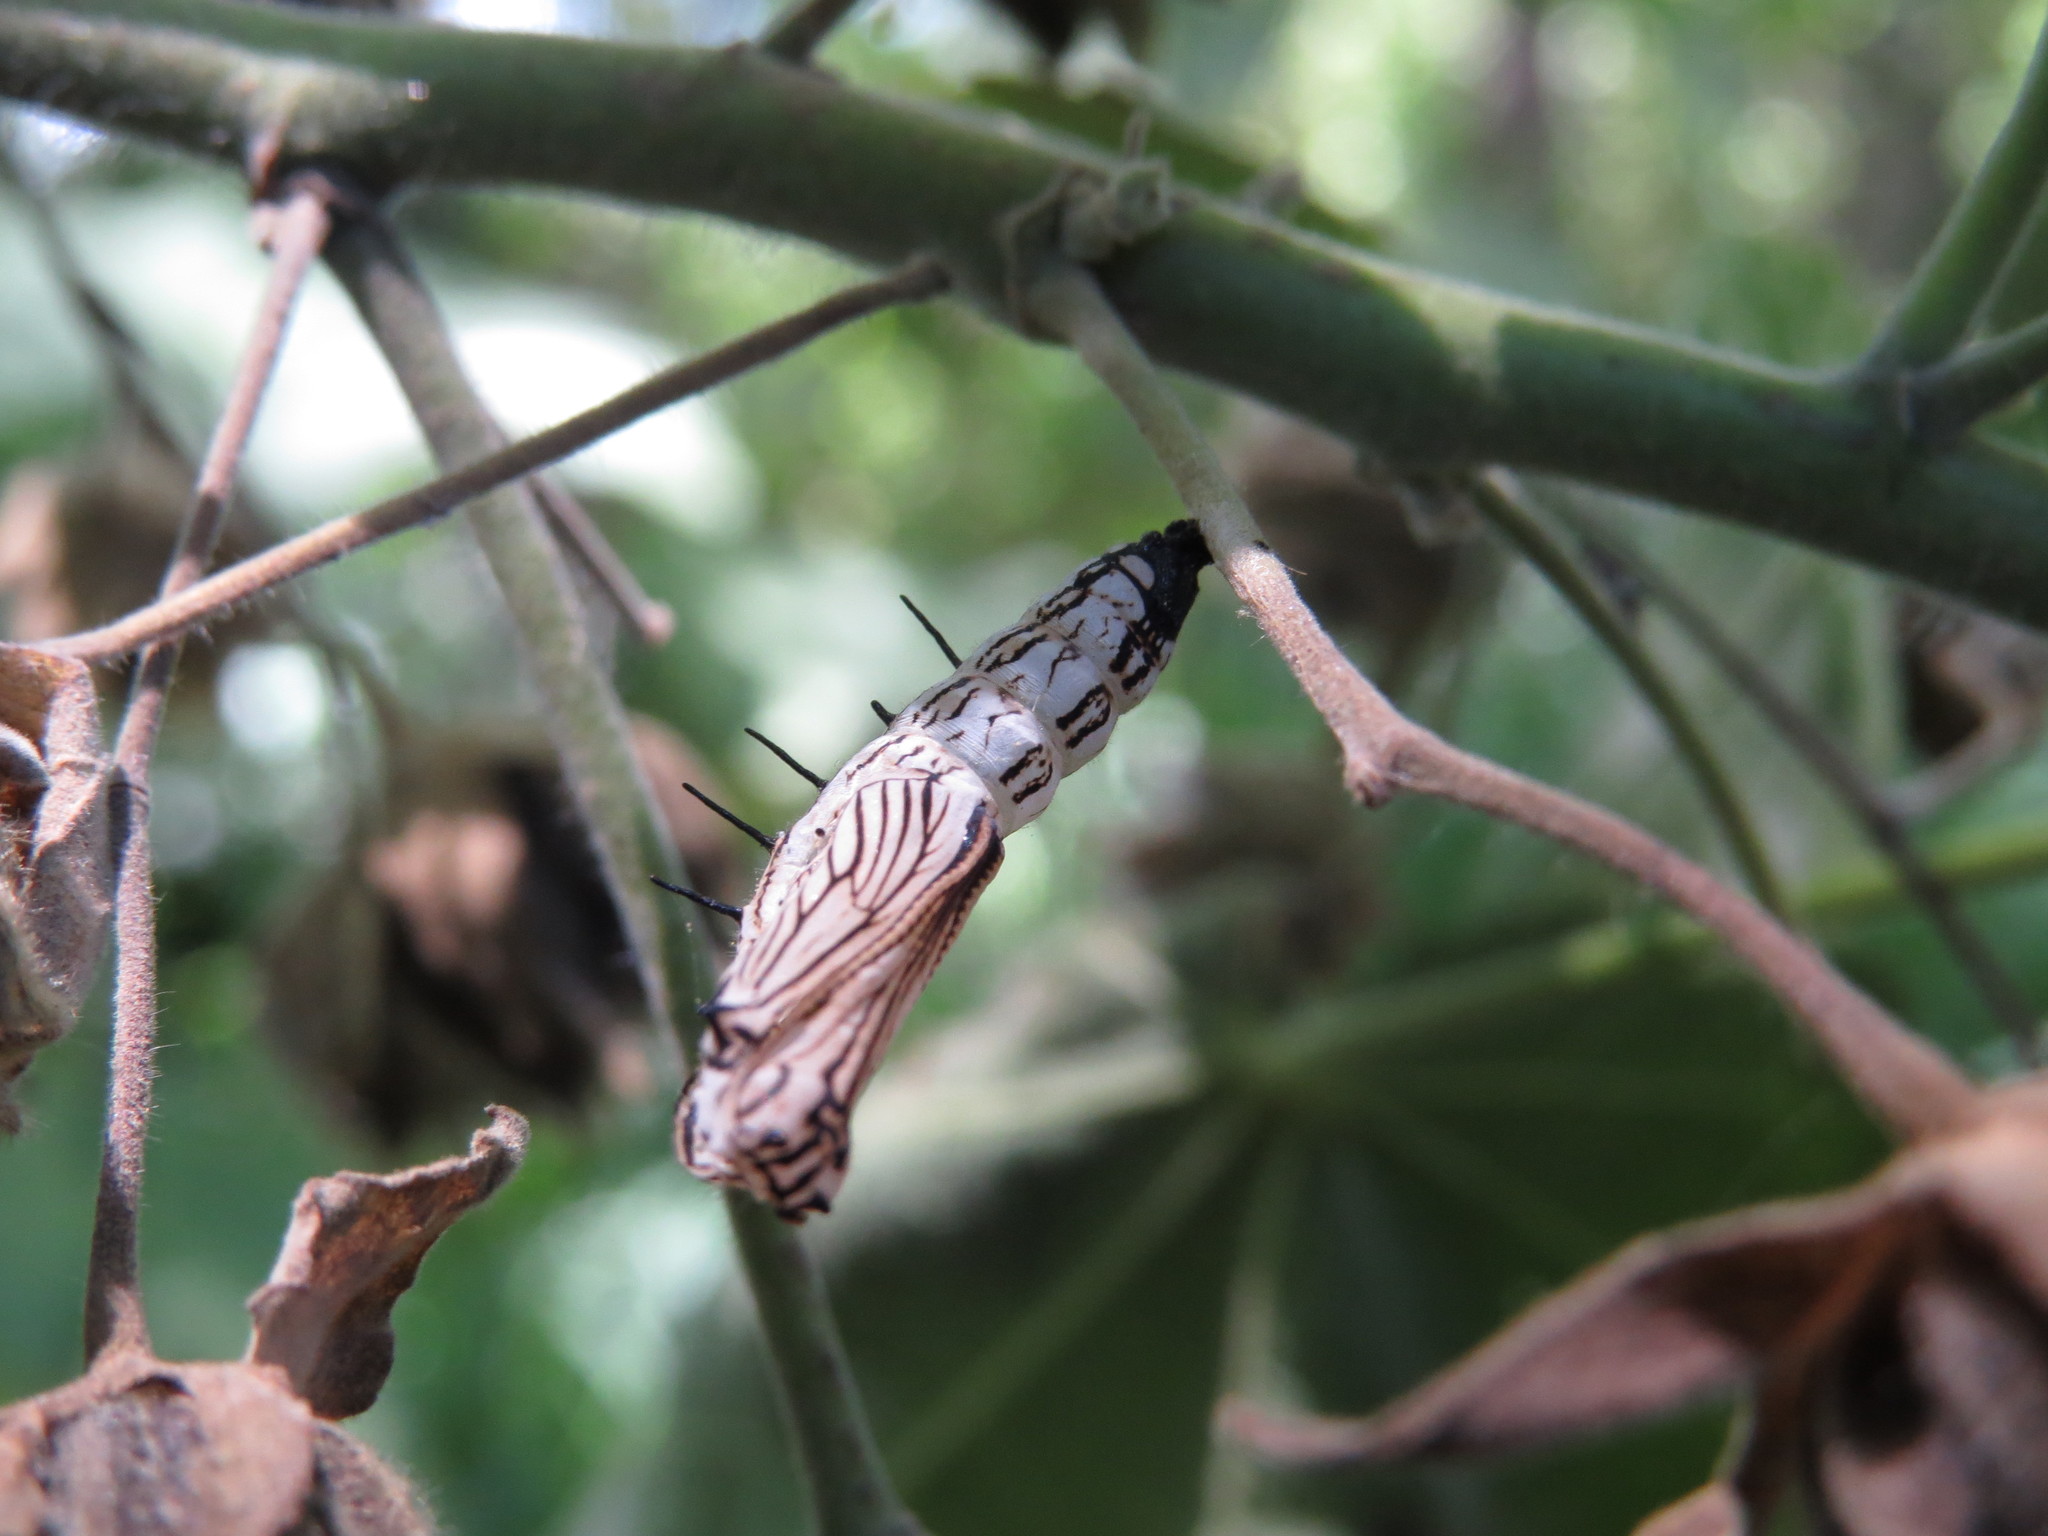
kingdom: Animalia
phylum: Arthropoda
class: Insecta
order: Lepidoptera
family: Nymphalidae
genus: Actinote
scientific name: Actinote
